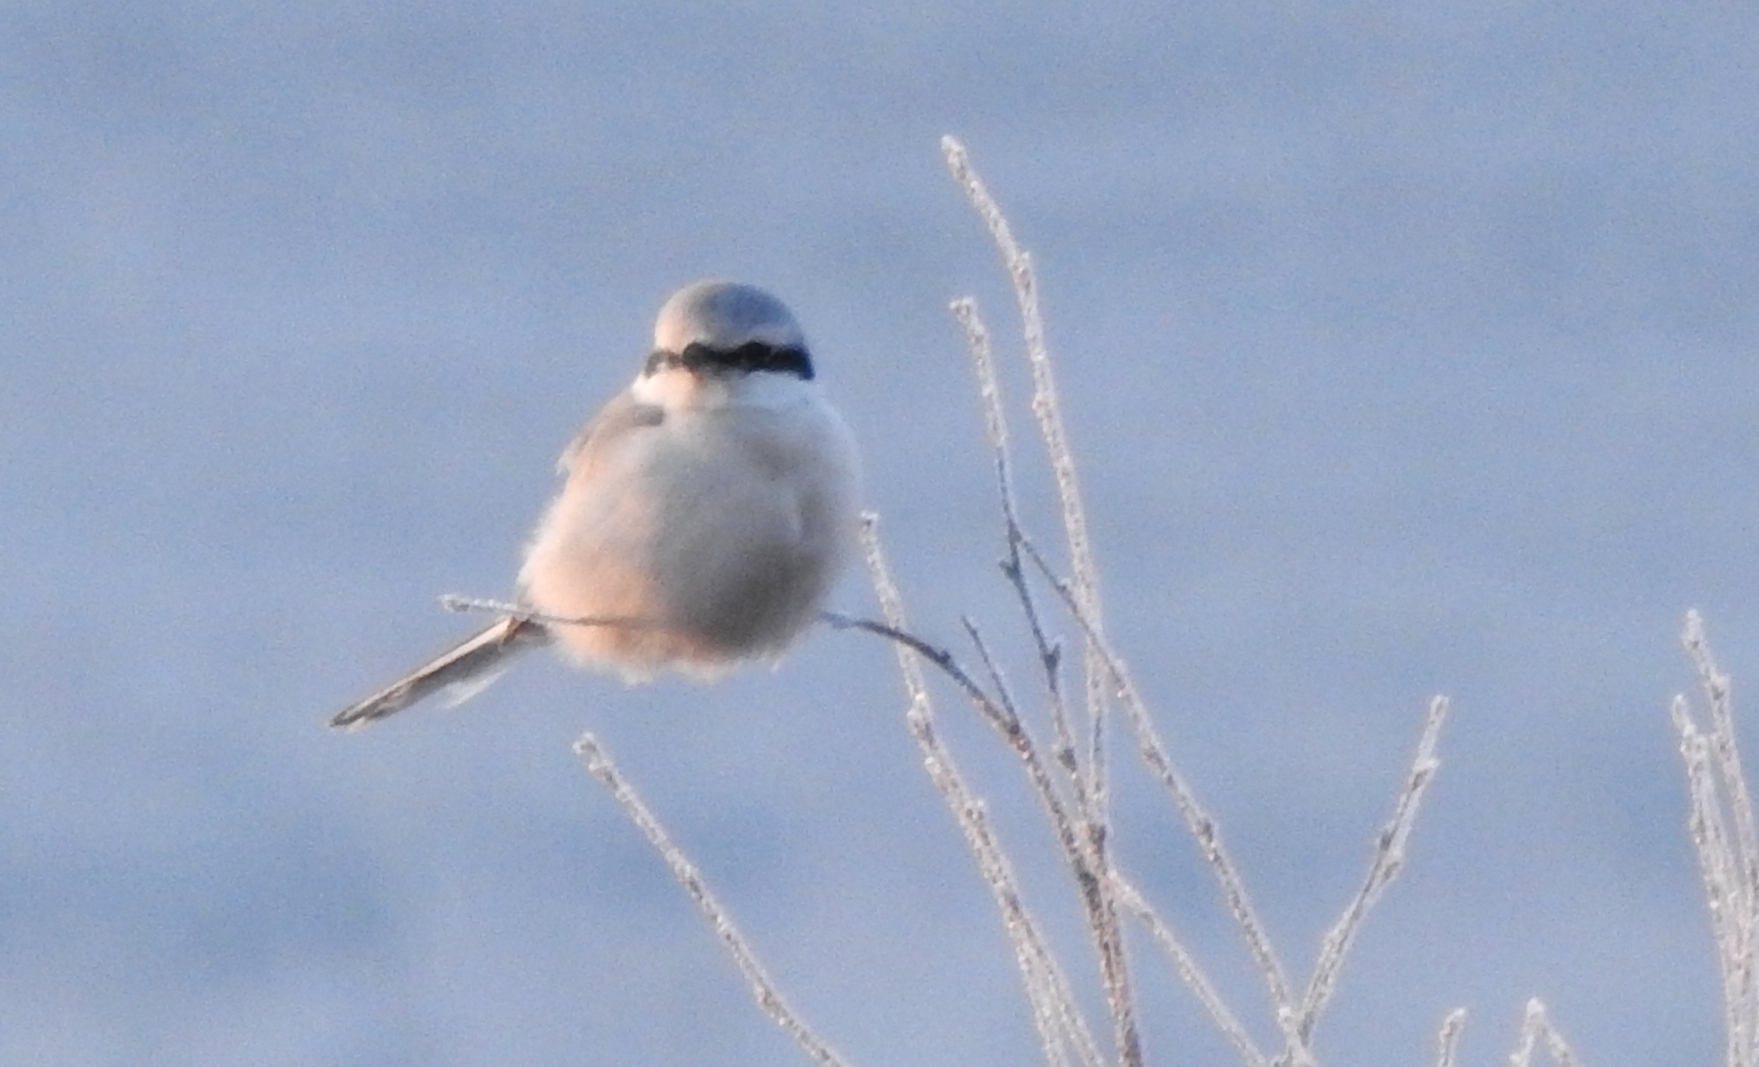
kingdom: Animalia
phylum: Chordata
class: Aves
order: Passeriformes
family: Laniidae
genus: Lanius
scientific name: Lanius borealis
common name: Northern shrike
